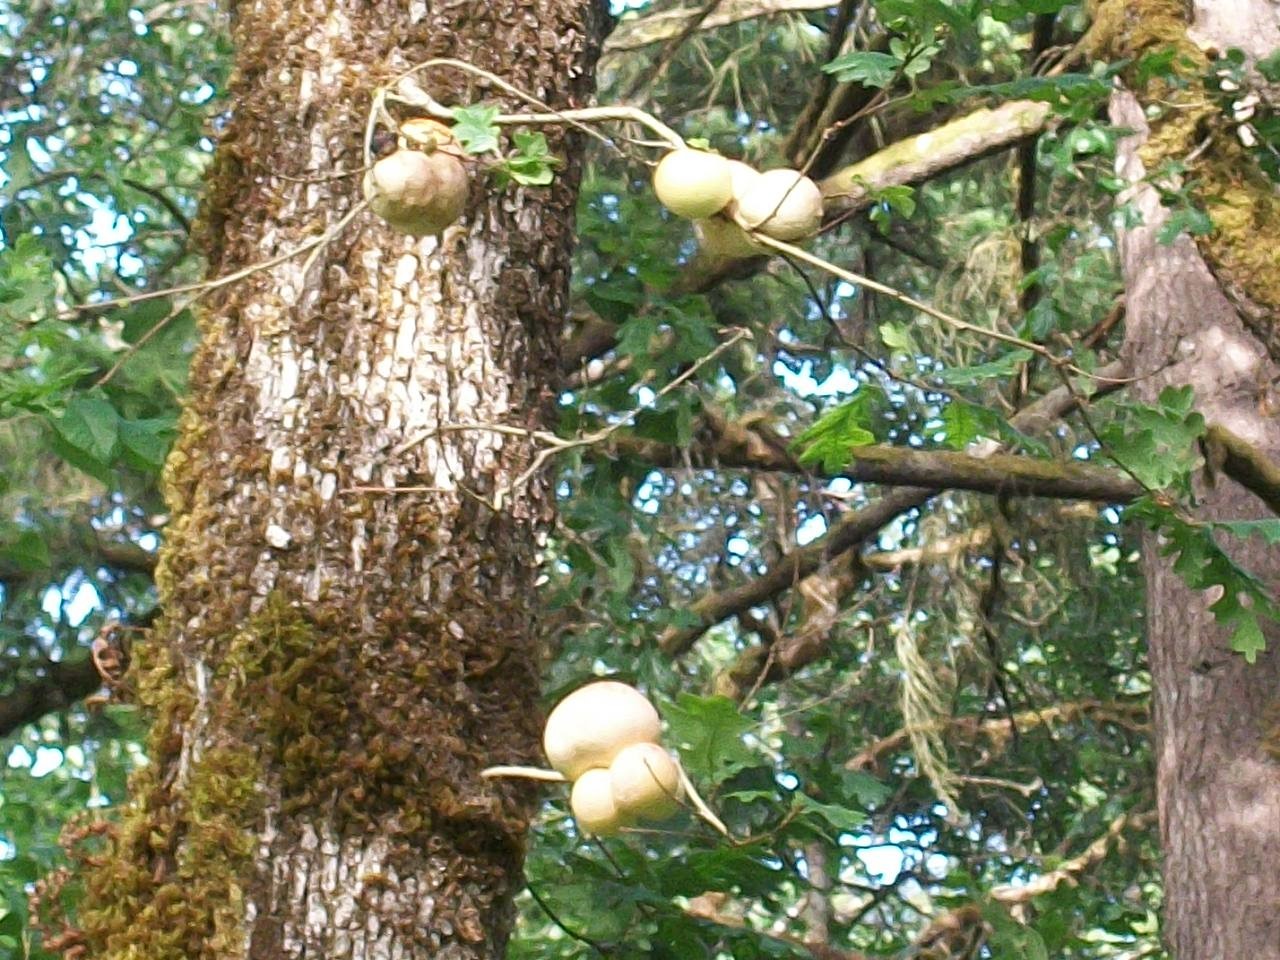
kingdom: Animalia
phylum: Arthropoda
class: Insecta
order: Hymenoptera
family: Cynipidae
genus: Andricus
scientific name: Andricus quercuscalifornicus
